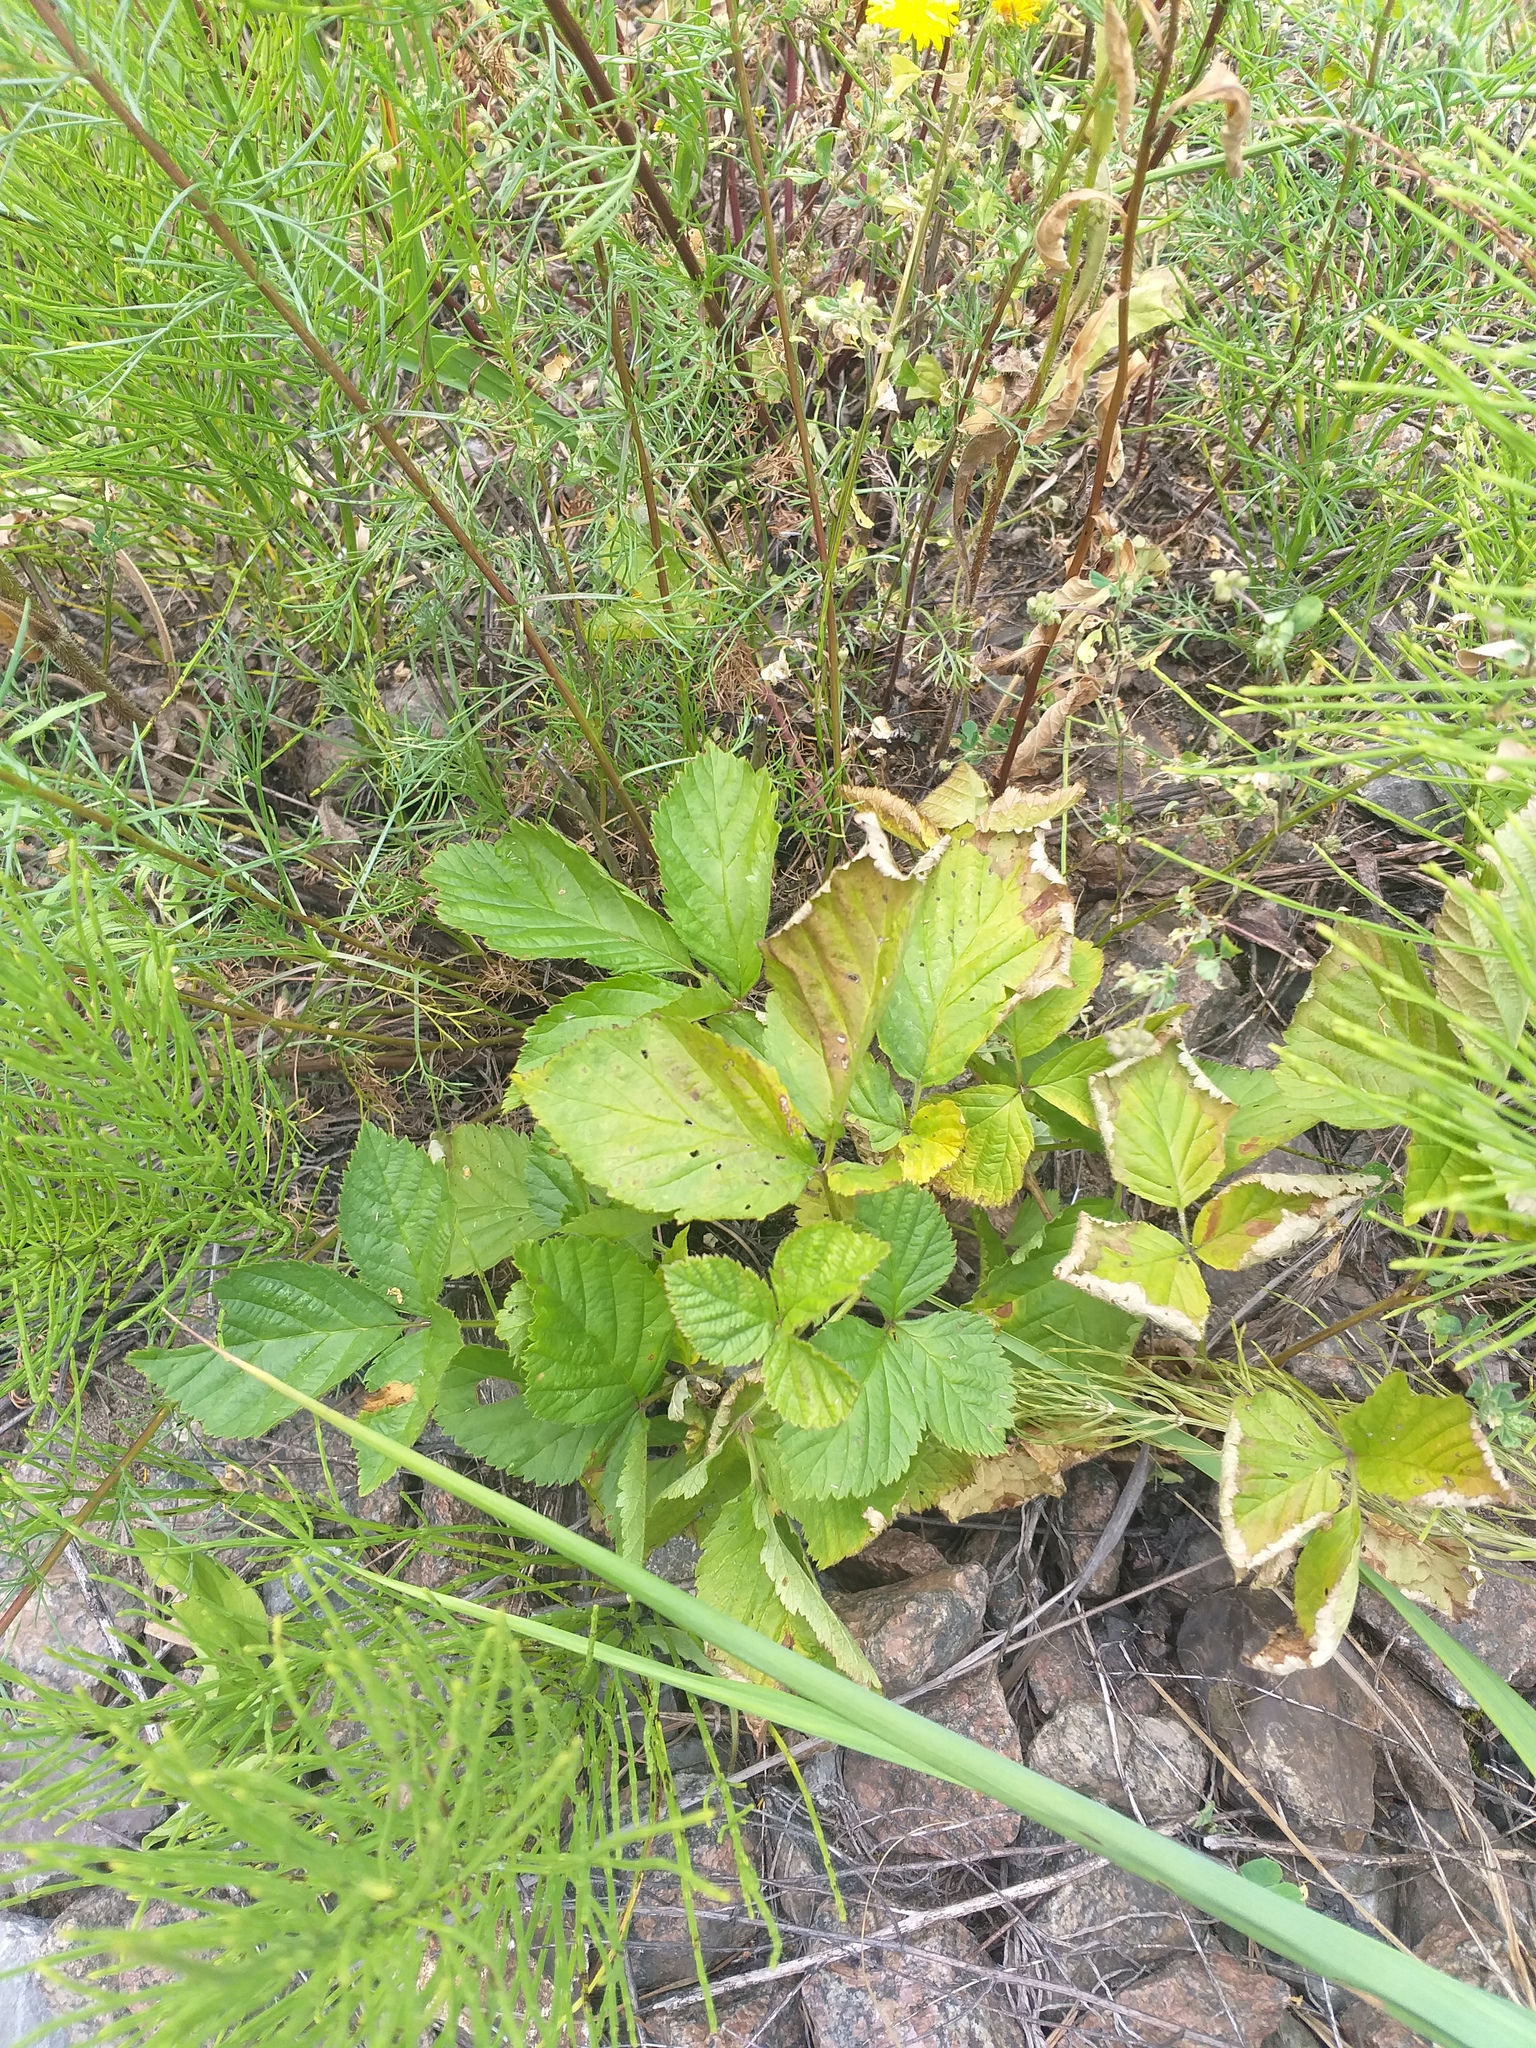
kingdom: Plantae
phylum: Tracheophyta
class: Magnoliopsida
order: Rosales
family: Rosaceae
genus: Rubus
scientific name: Rubus saxatilis
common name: Stone bramble
